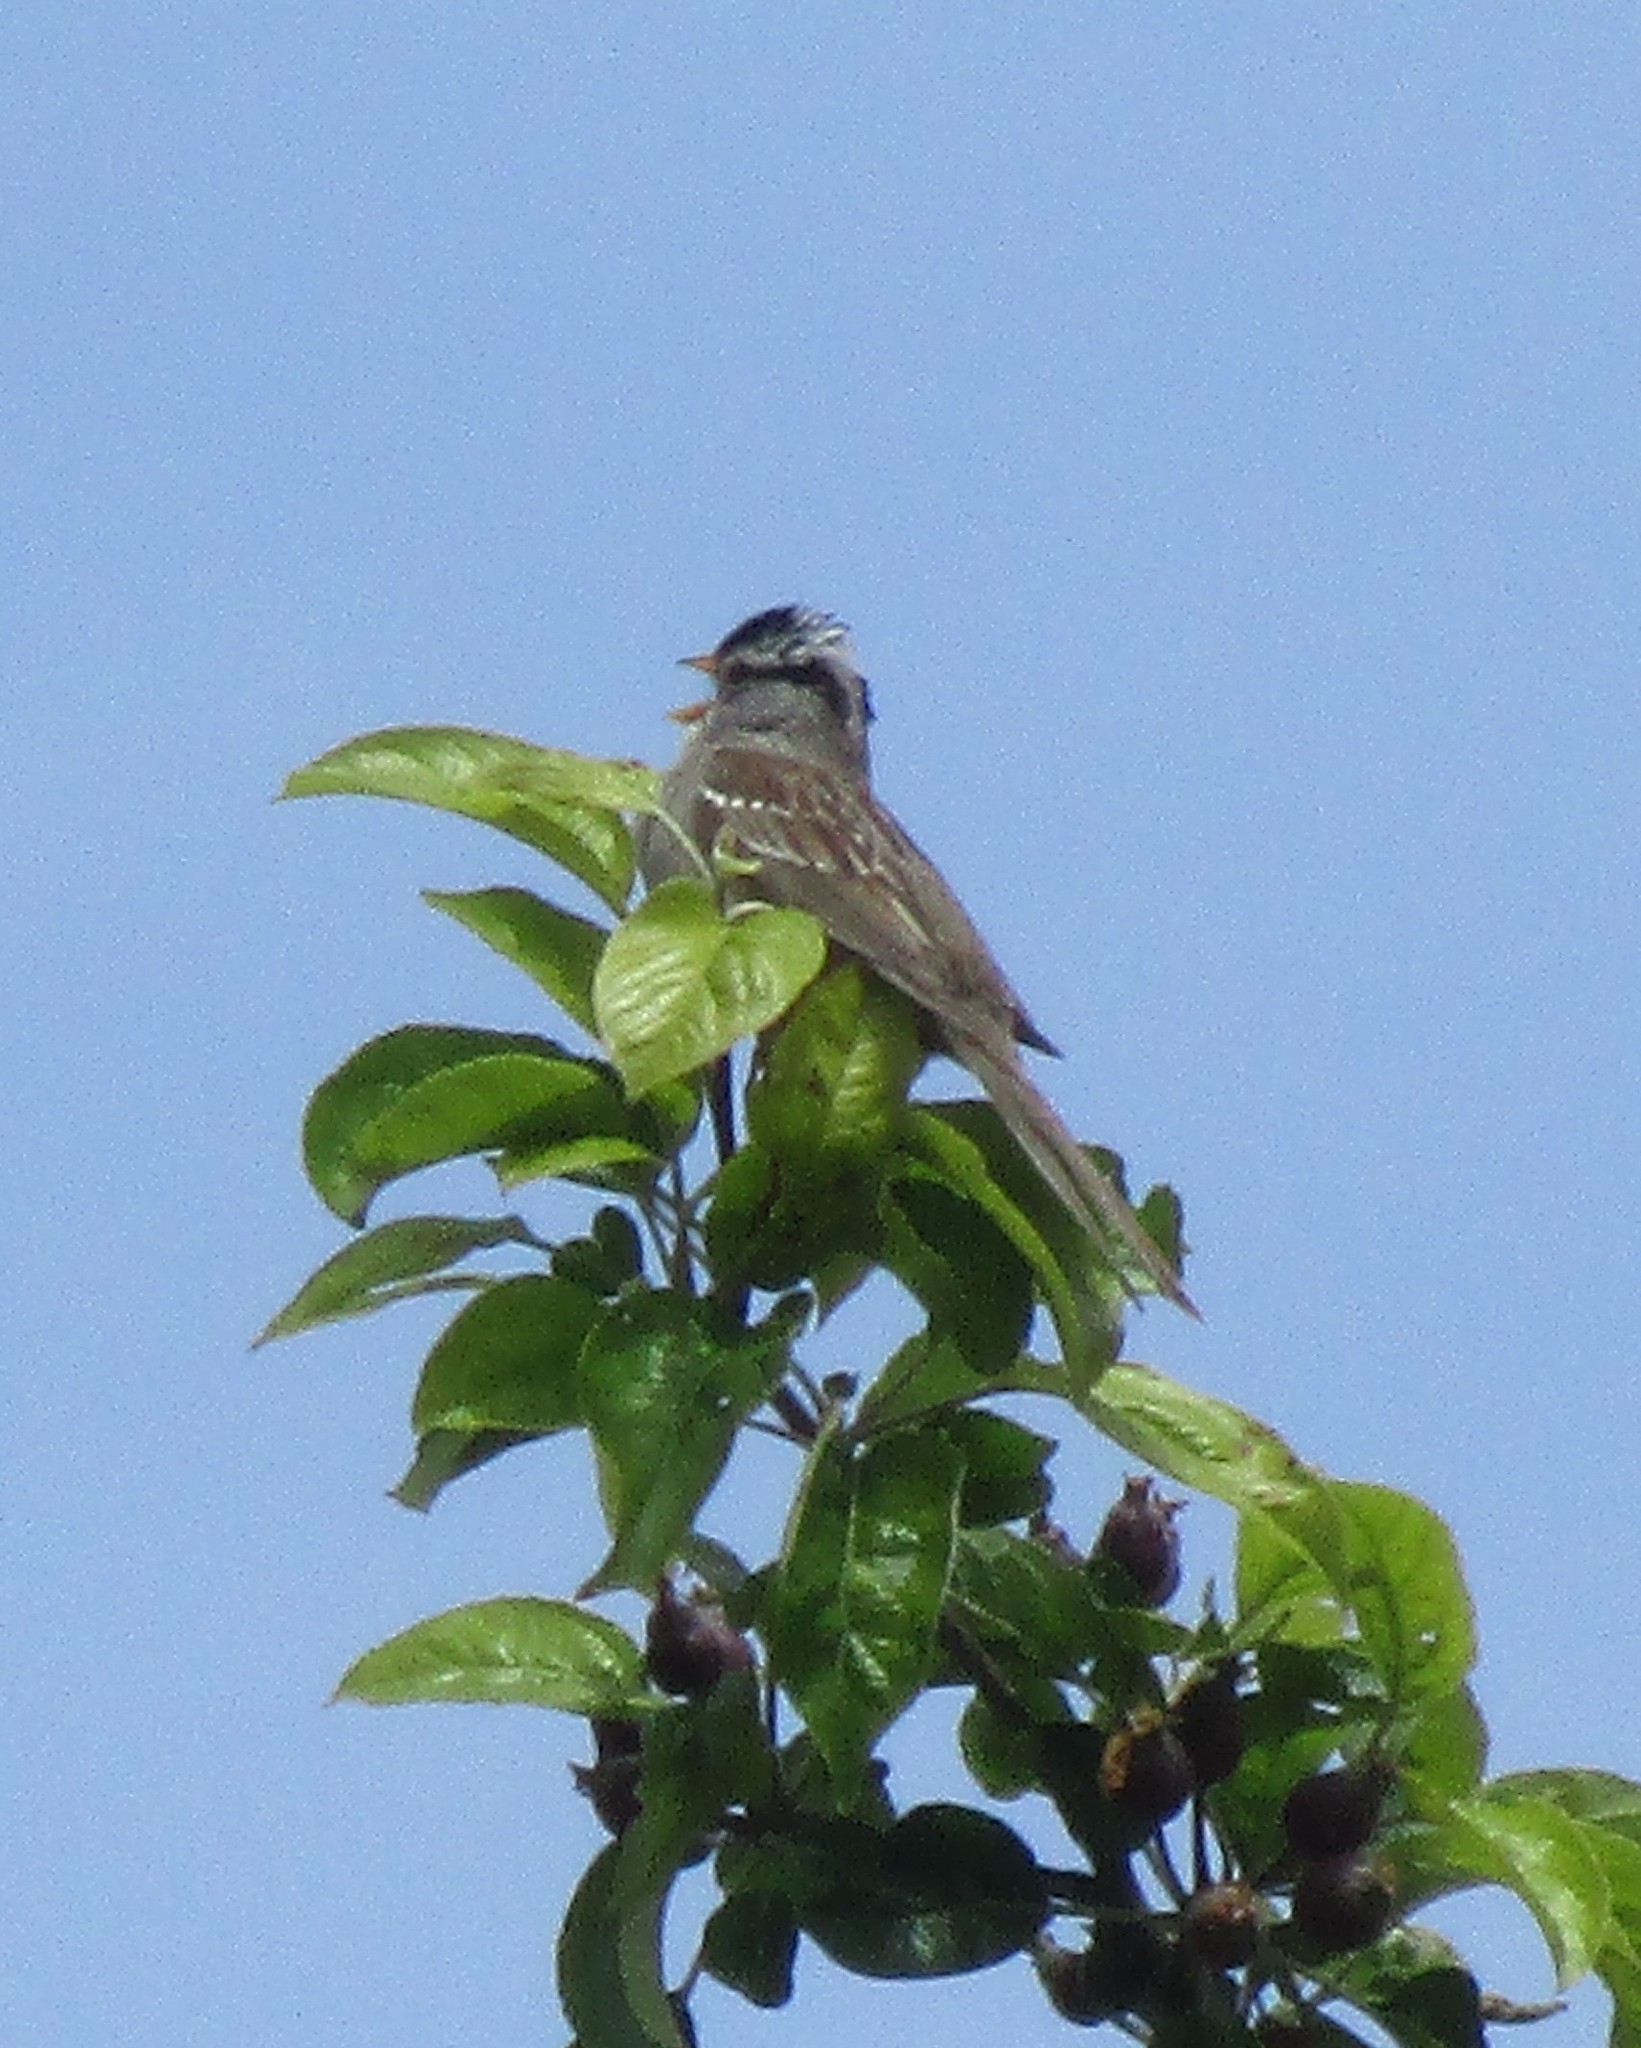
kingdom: Animalia
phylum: Chordata
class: Aves
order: Passeriformes
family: Passerellidae
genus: Zonotrichia
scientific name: Zonotrichia leucophrys
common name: White-crowned sparrow
